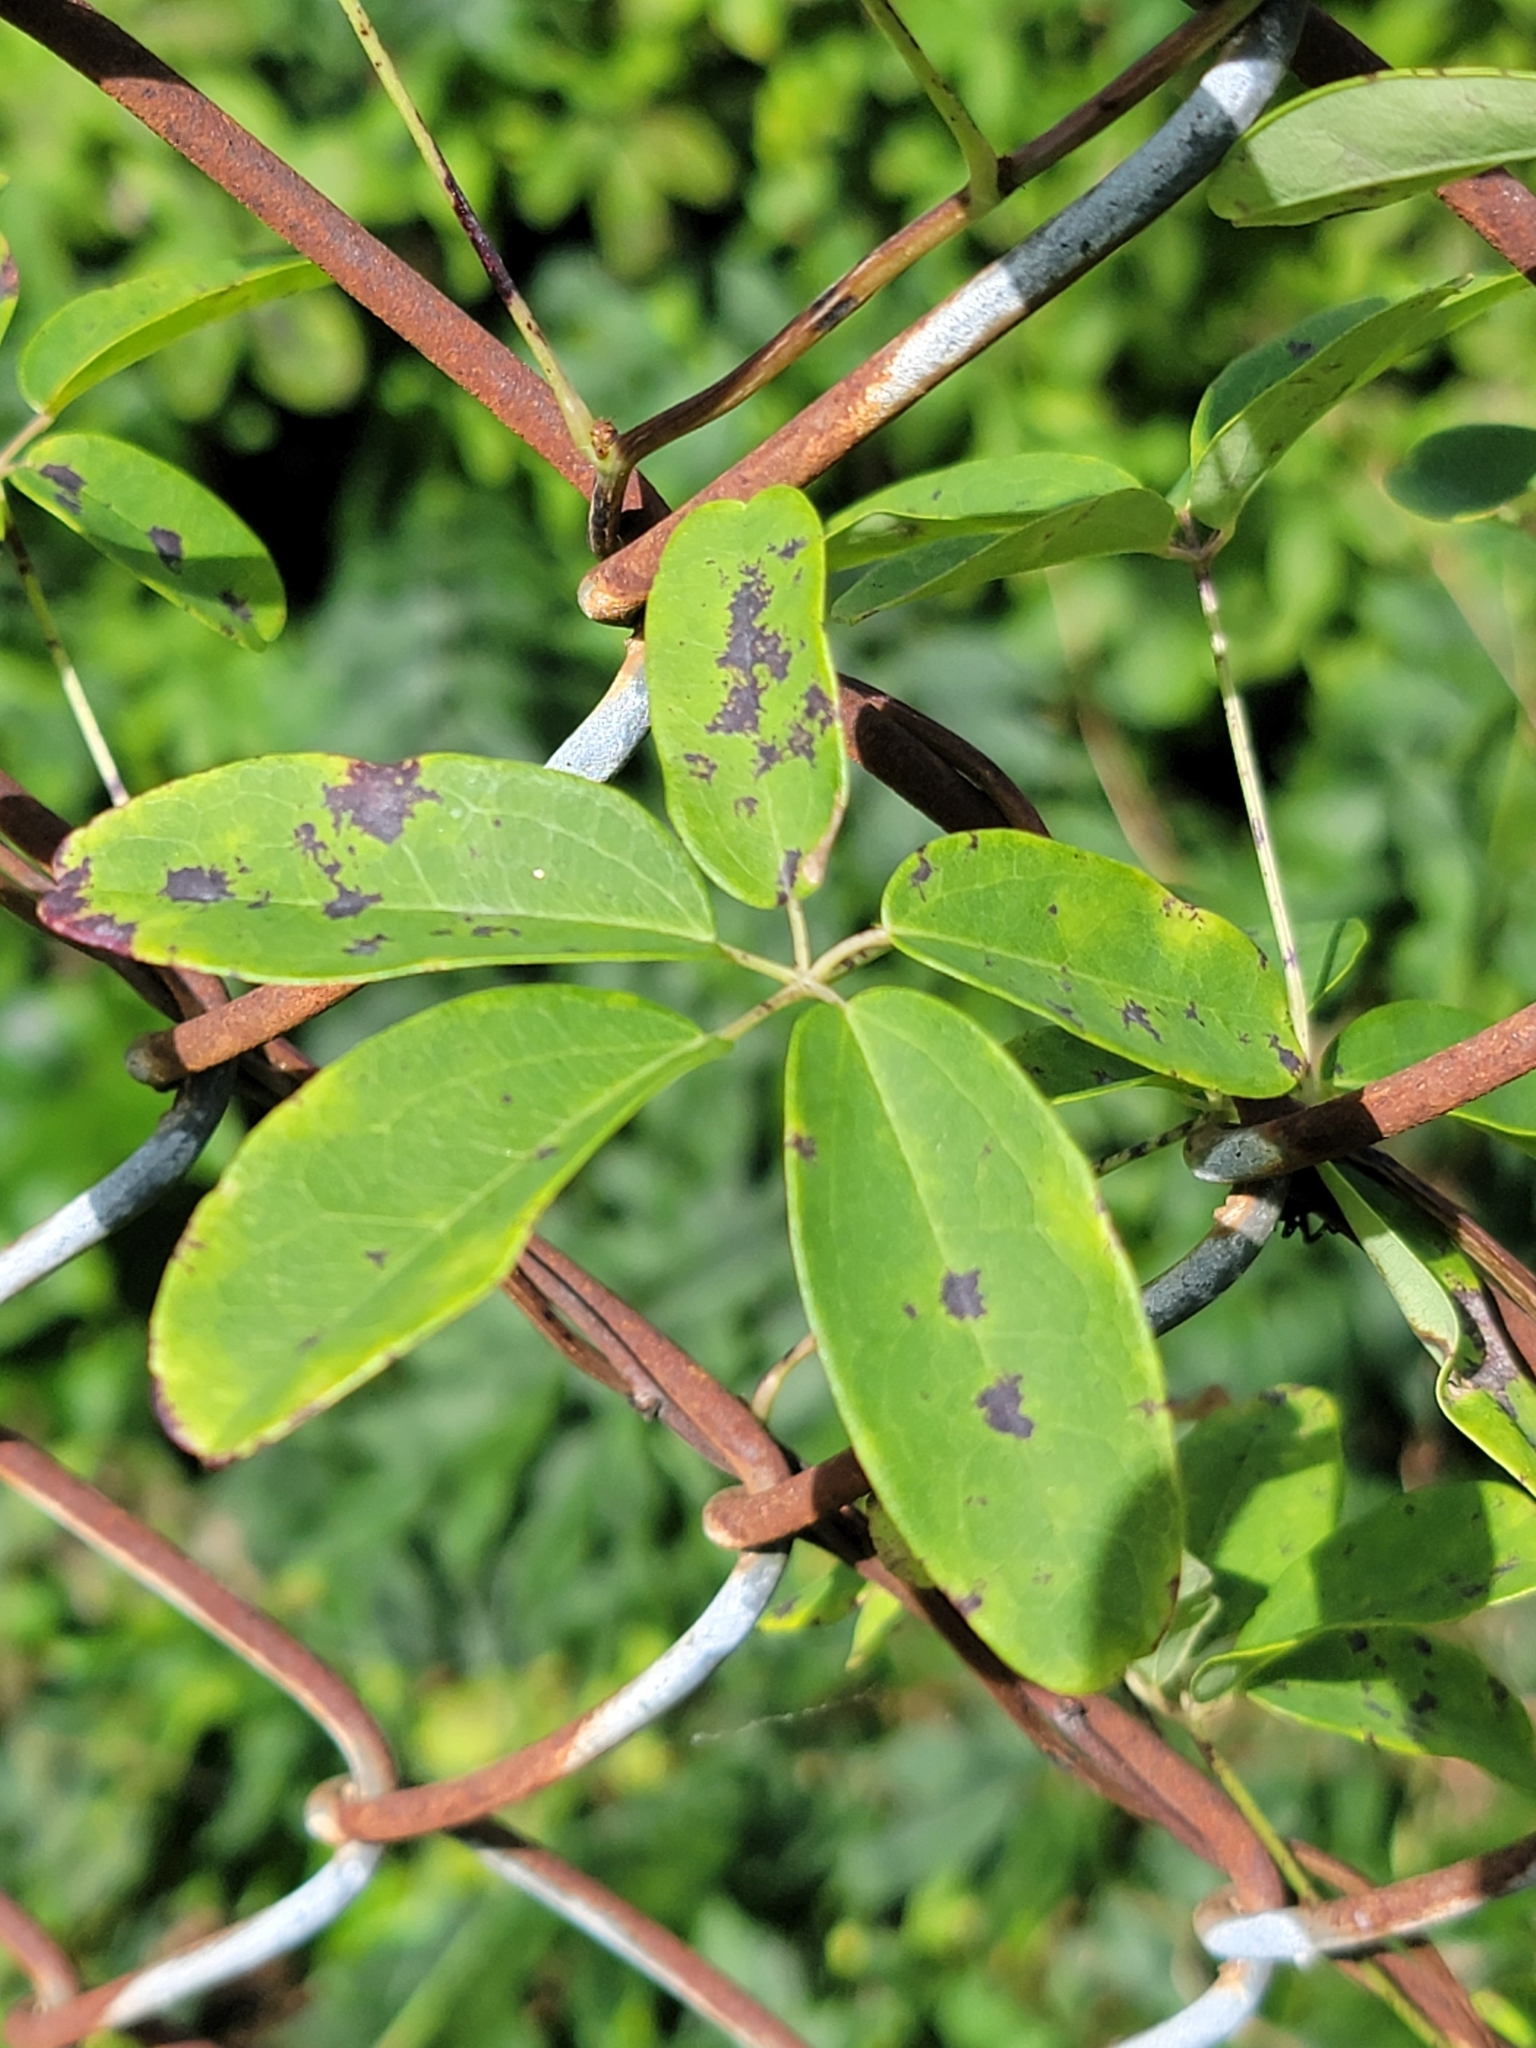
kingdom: Plantae
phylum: Tracheophyta
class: Magnoliopsida
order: Ranunculales
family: Lardizabalaceae
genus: Akebia
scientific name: Akebia quinata
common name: Five-leaf akebia
